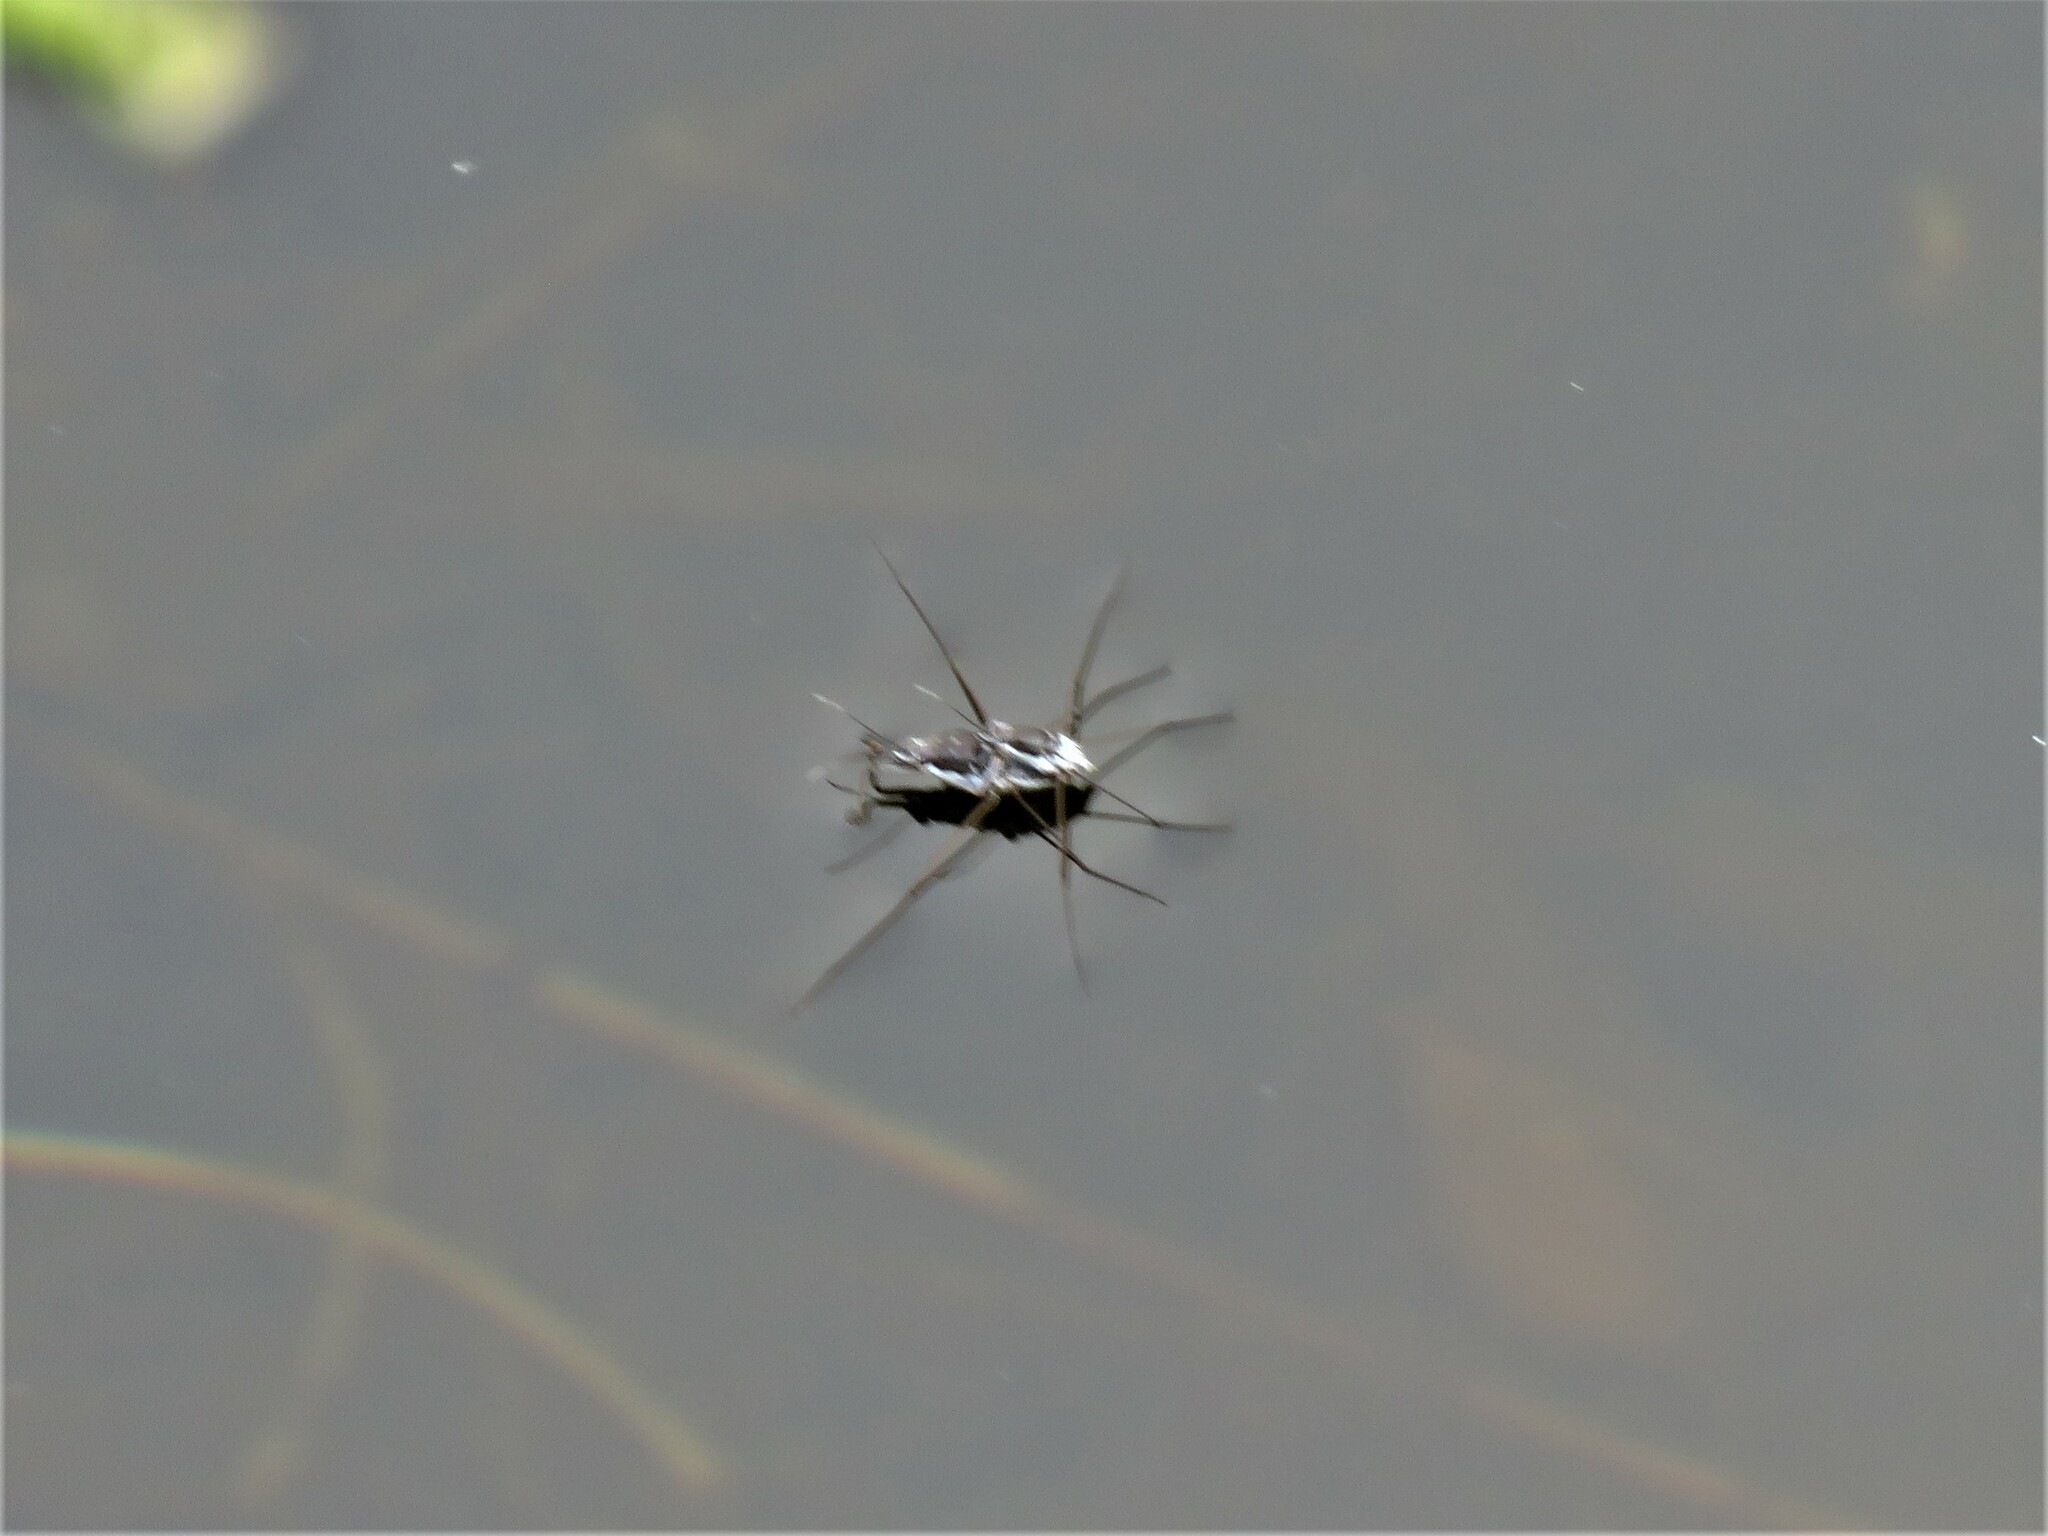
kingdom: Animalia
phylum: Arthropoda
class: Insecta
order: Hemiptera
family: Gerridae
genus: Neogerris
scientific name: Neogerris hesione
